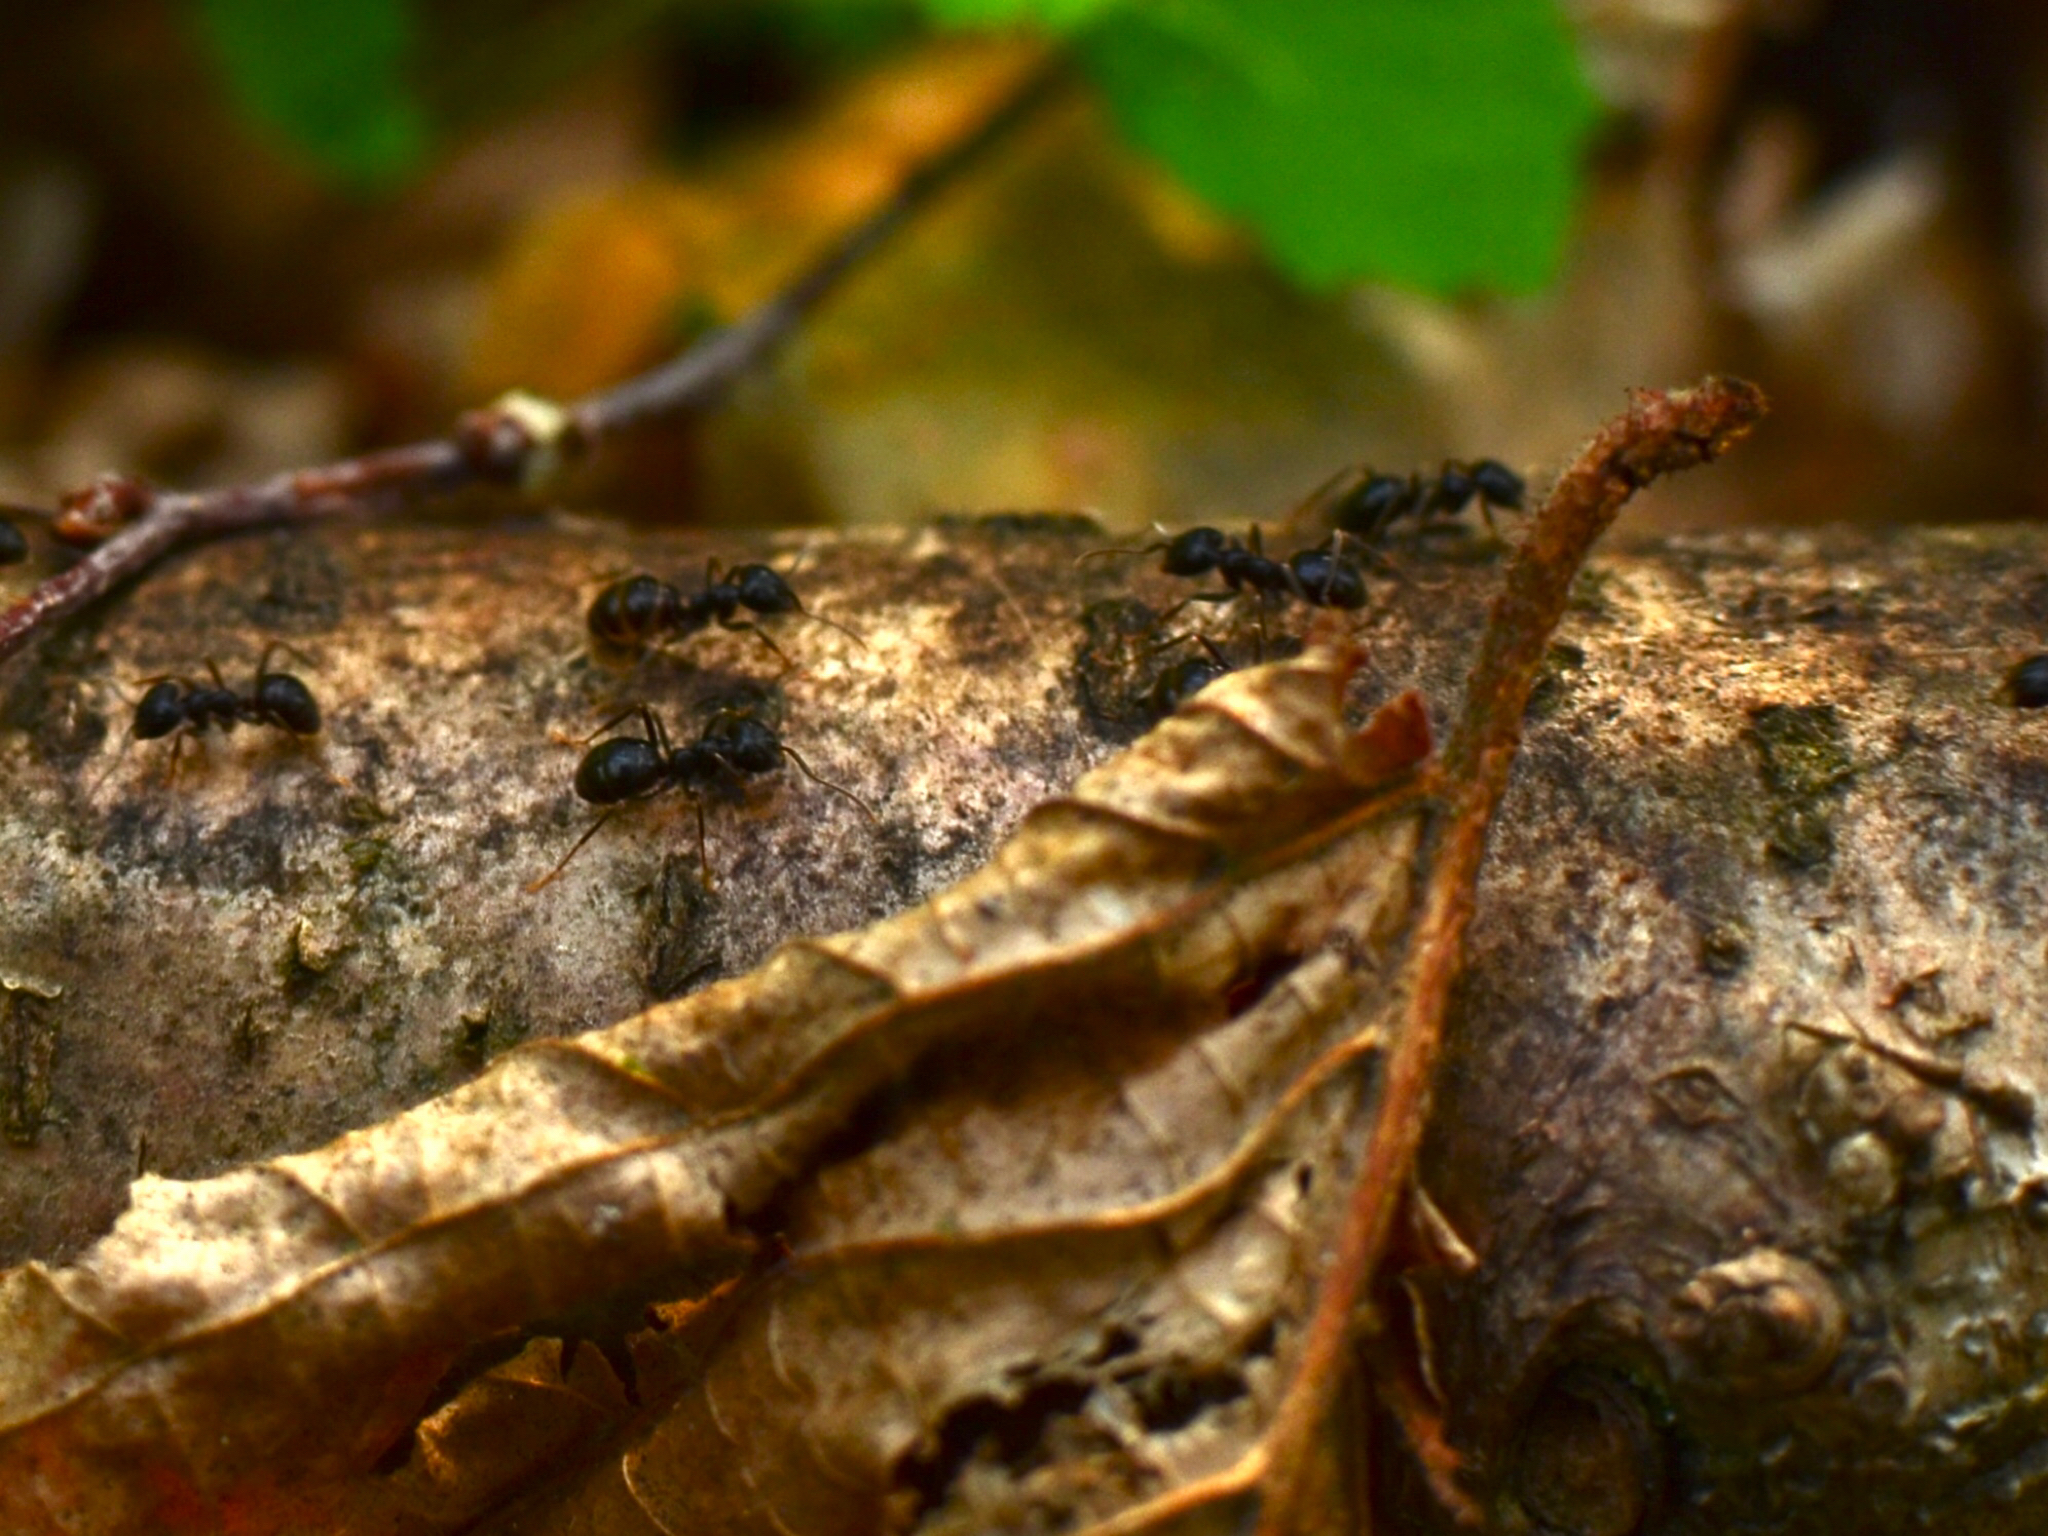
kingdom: Animalia
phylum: Arthropoda
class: Insecta
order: Hymenoptera
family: Formicidae
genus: Lasius
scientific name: Lasius fuliginosus
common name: Jet ant
